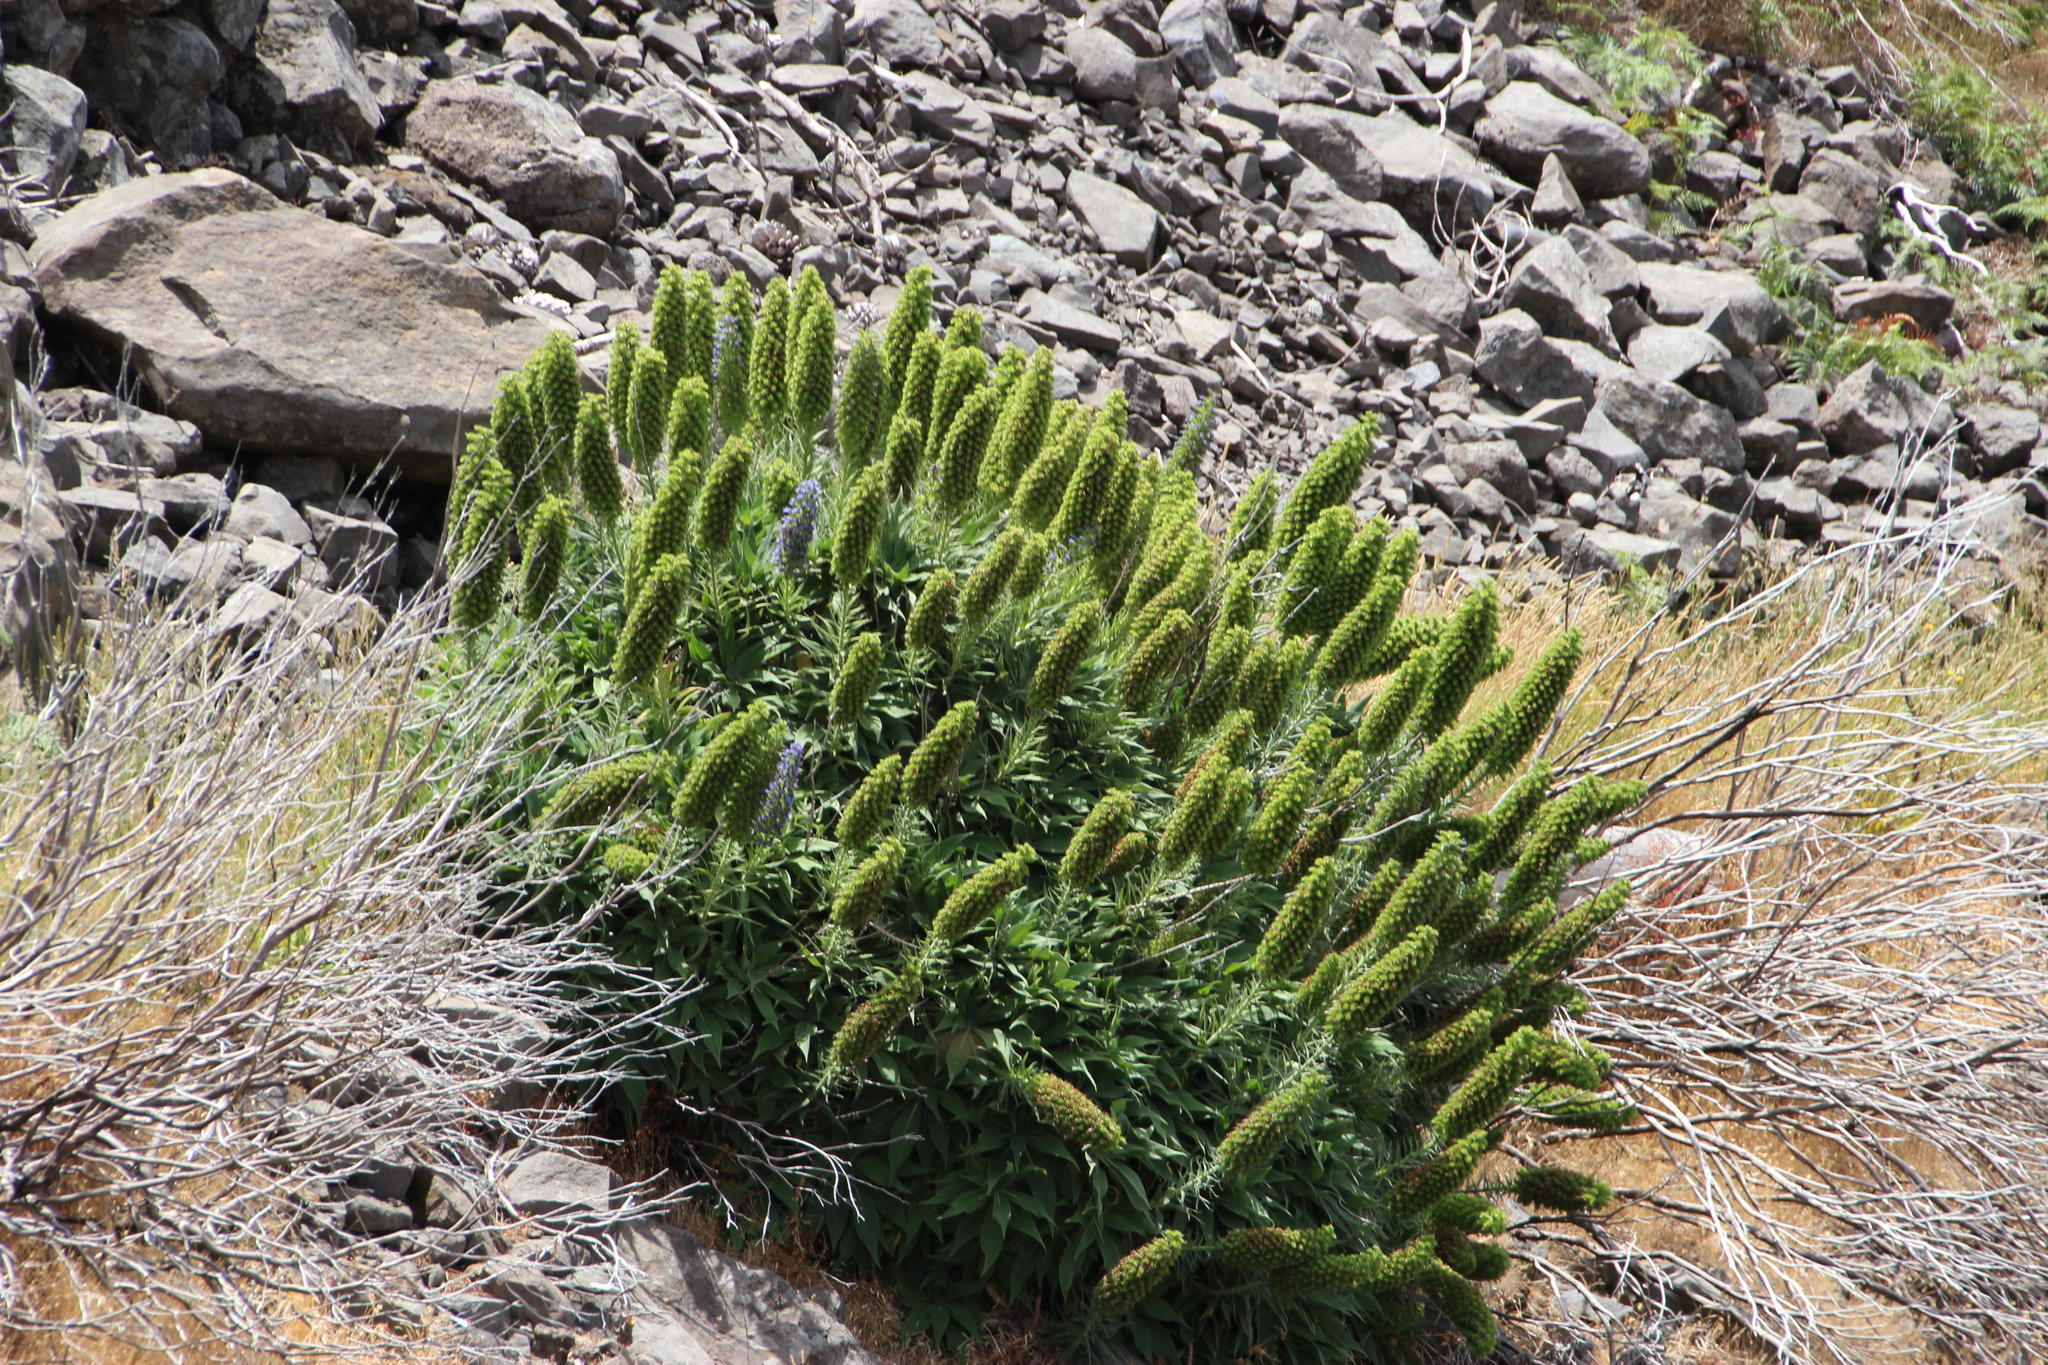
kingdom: Plantae
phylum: Tracheophyta
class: Magnoliopsida
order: Boraginales
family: Boraginaceae
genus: Echium
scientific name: Echium candicans
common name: Pride of madeira
